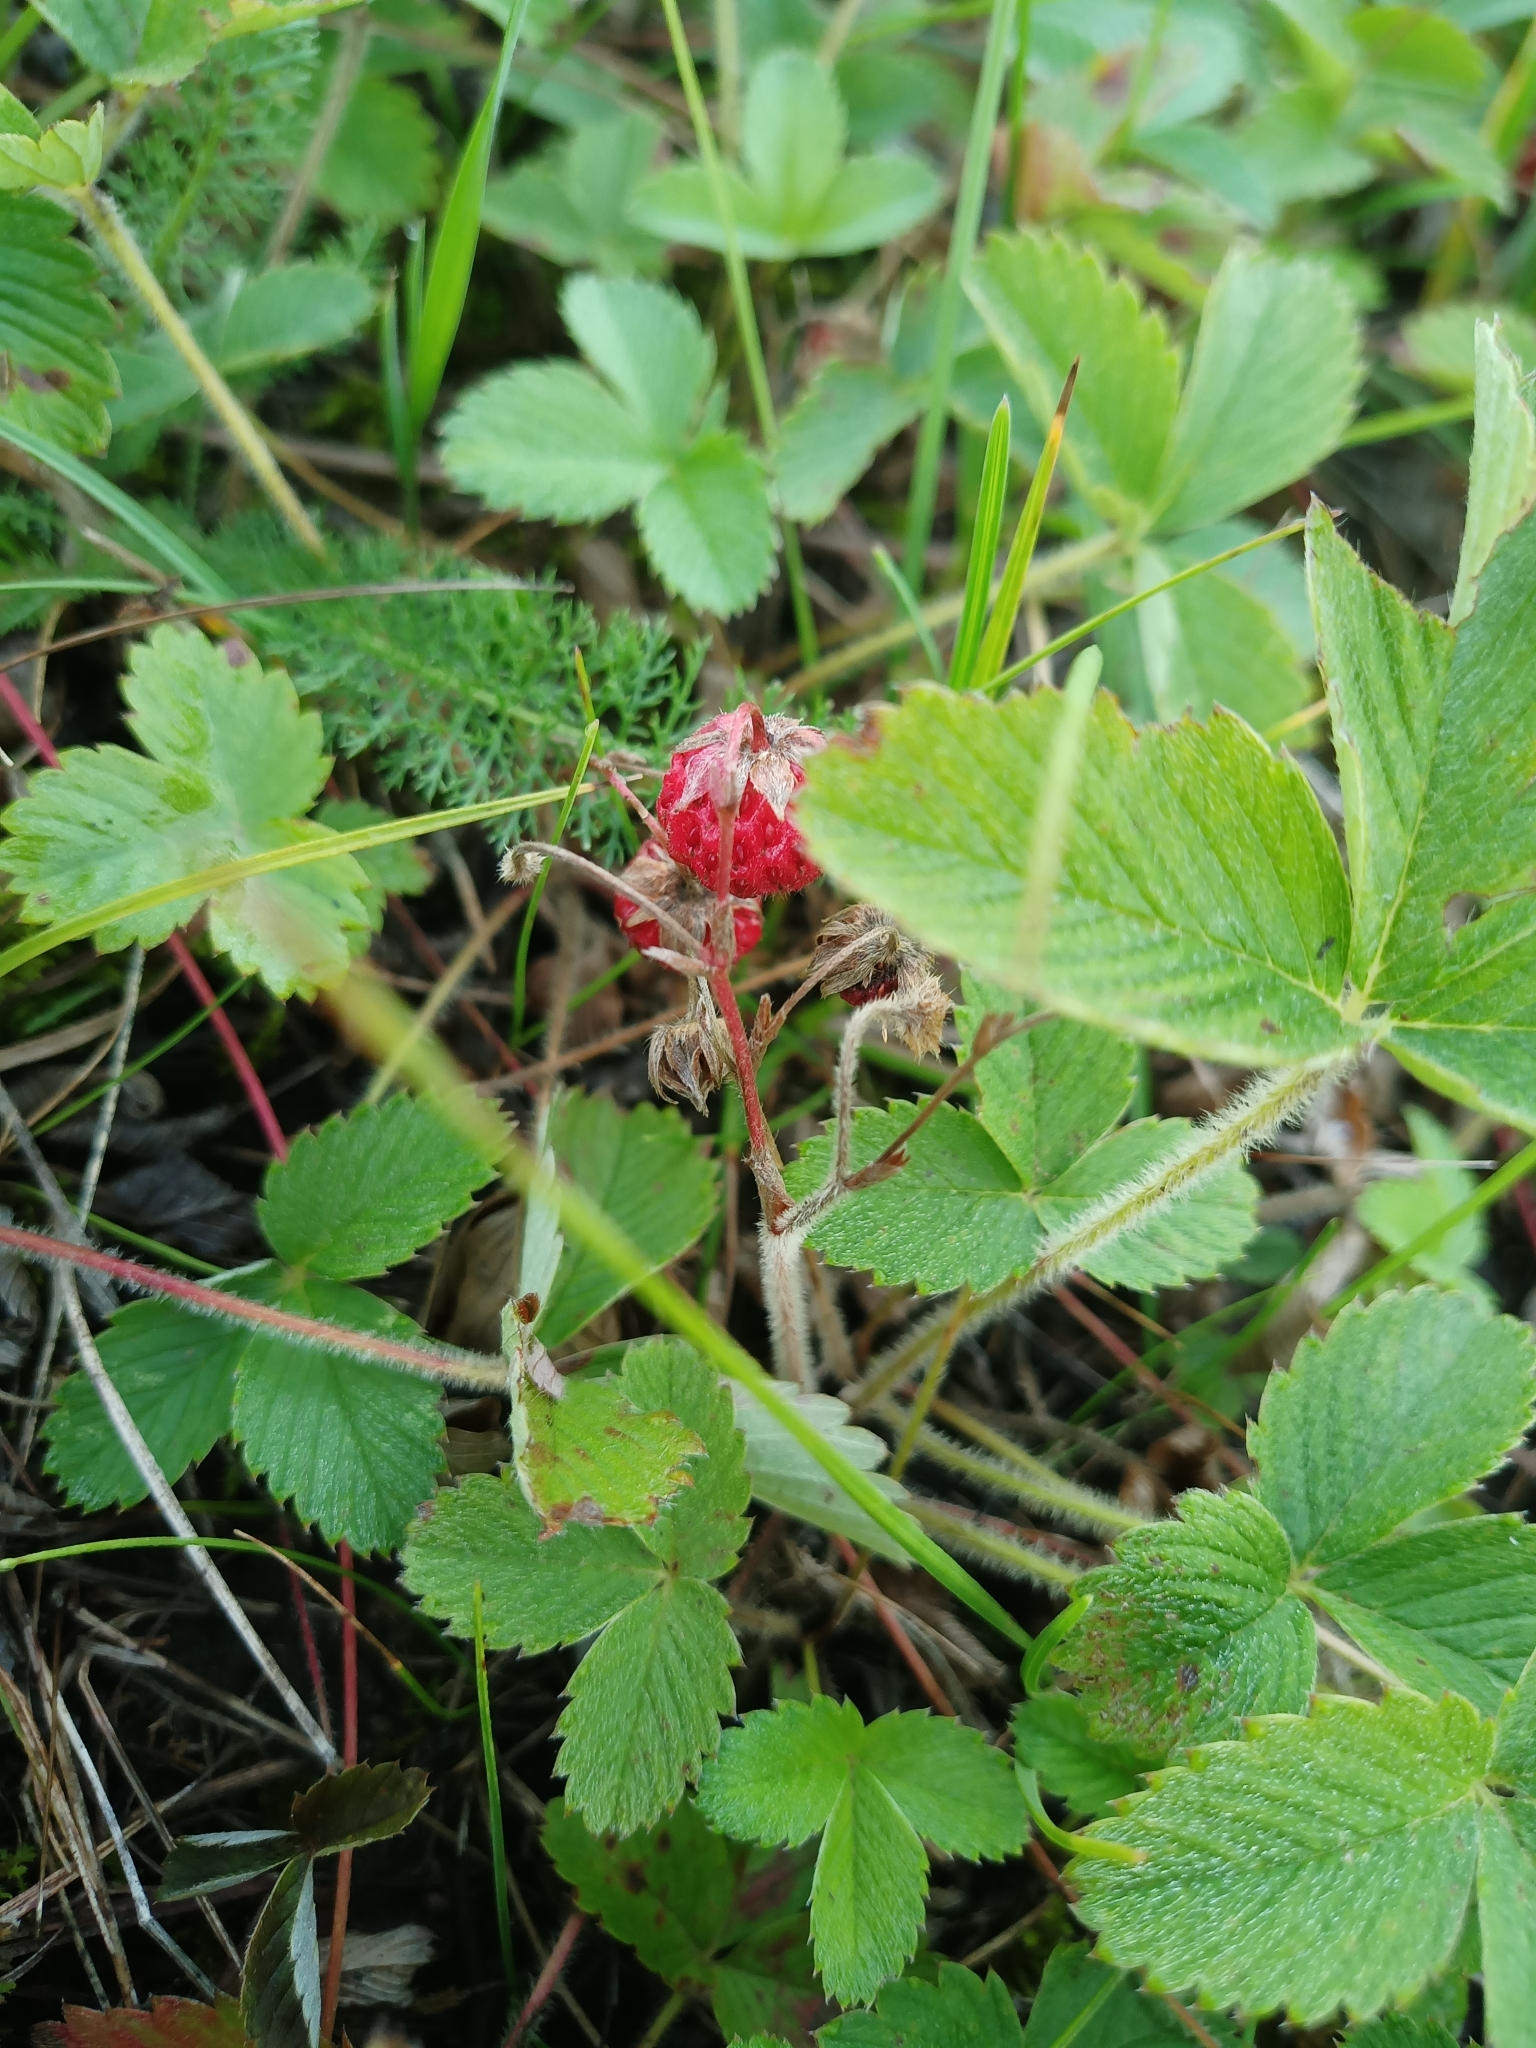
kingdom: Plantae
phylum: Tracheophyta
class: Magnoliopsida
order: Rosales
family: Rosaceae
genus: Fragaria
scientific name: Fragaria viridis
